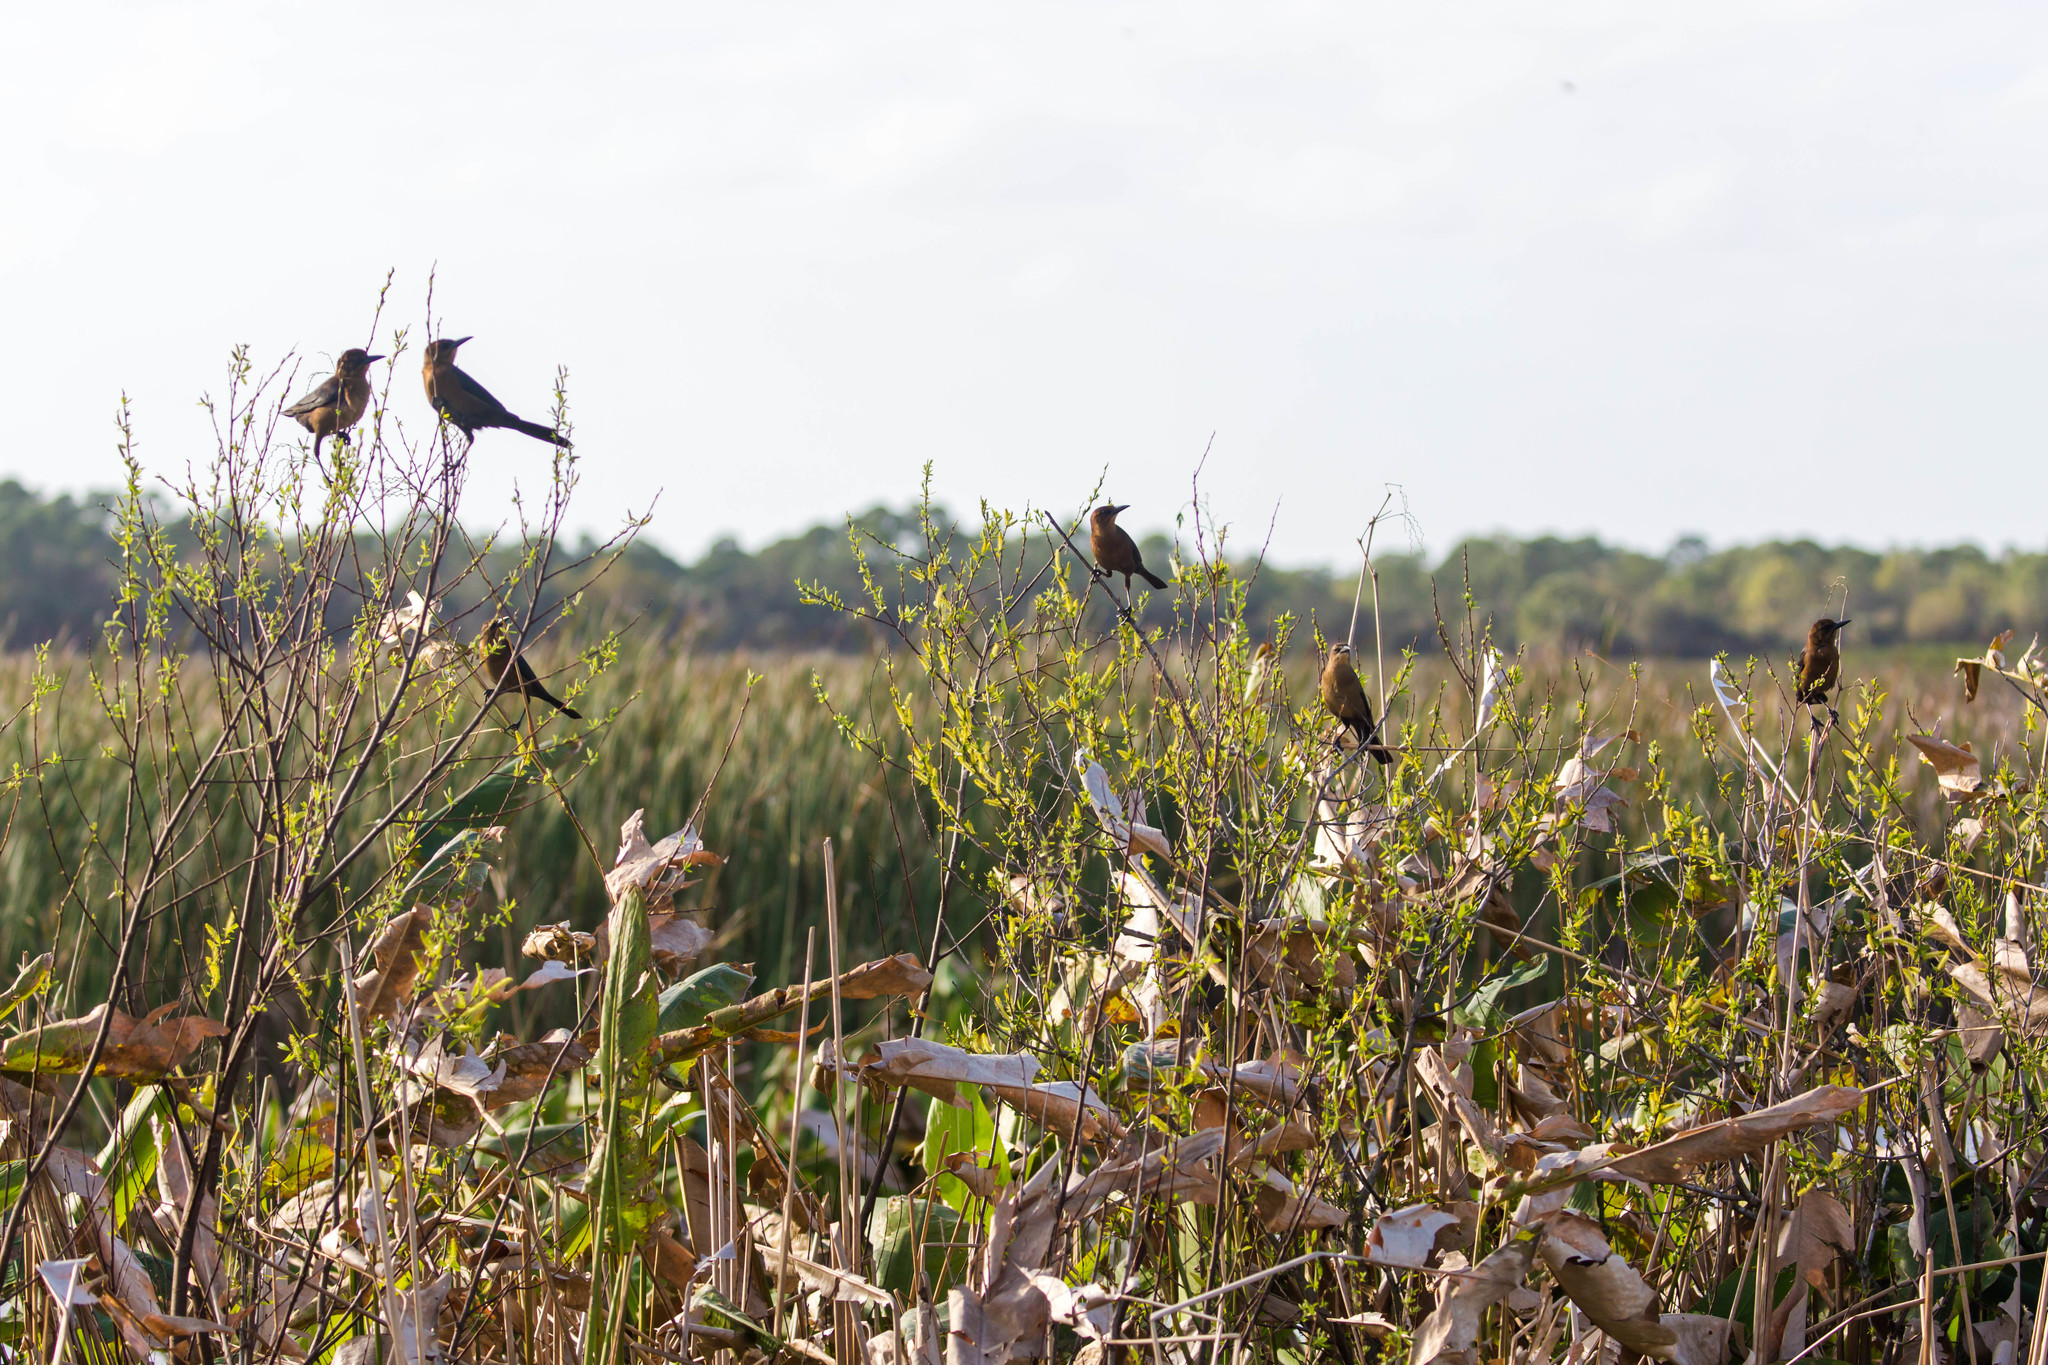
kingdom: Animalia
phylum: Chordata
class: Aves
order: Passeriformes
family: Icteridae
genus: Quiscalus
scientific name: Quiscalus major
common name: Boat-tailed grackle
